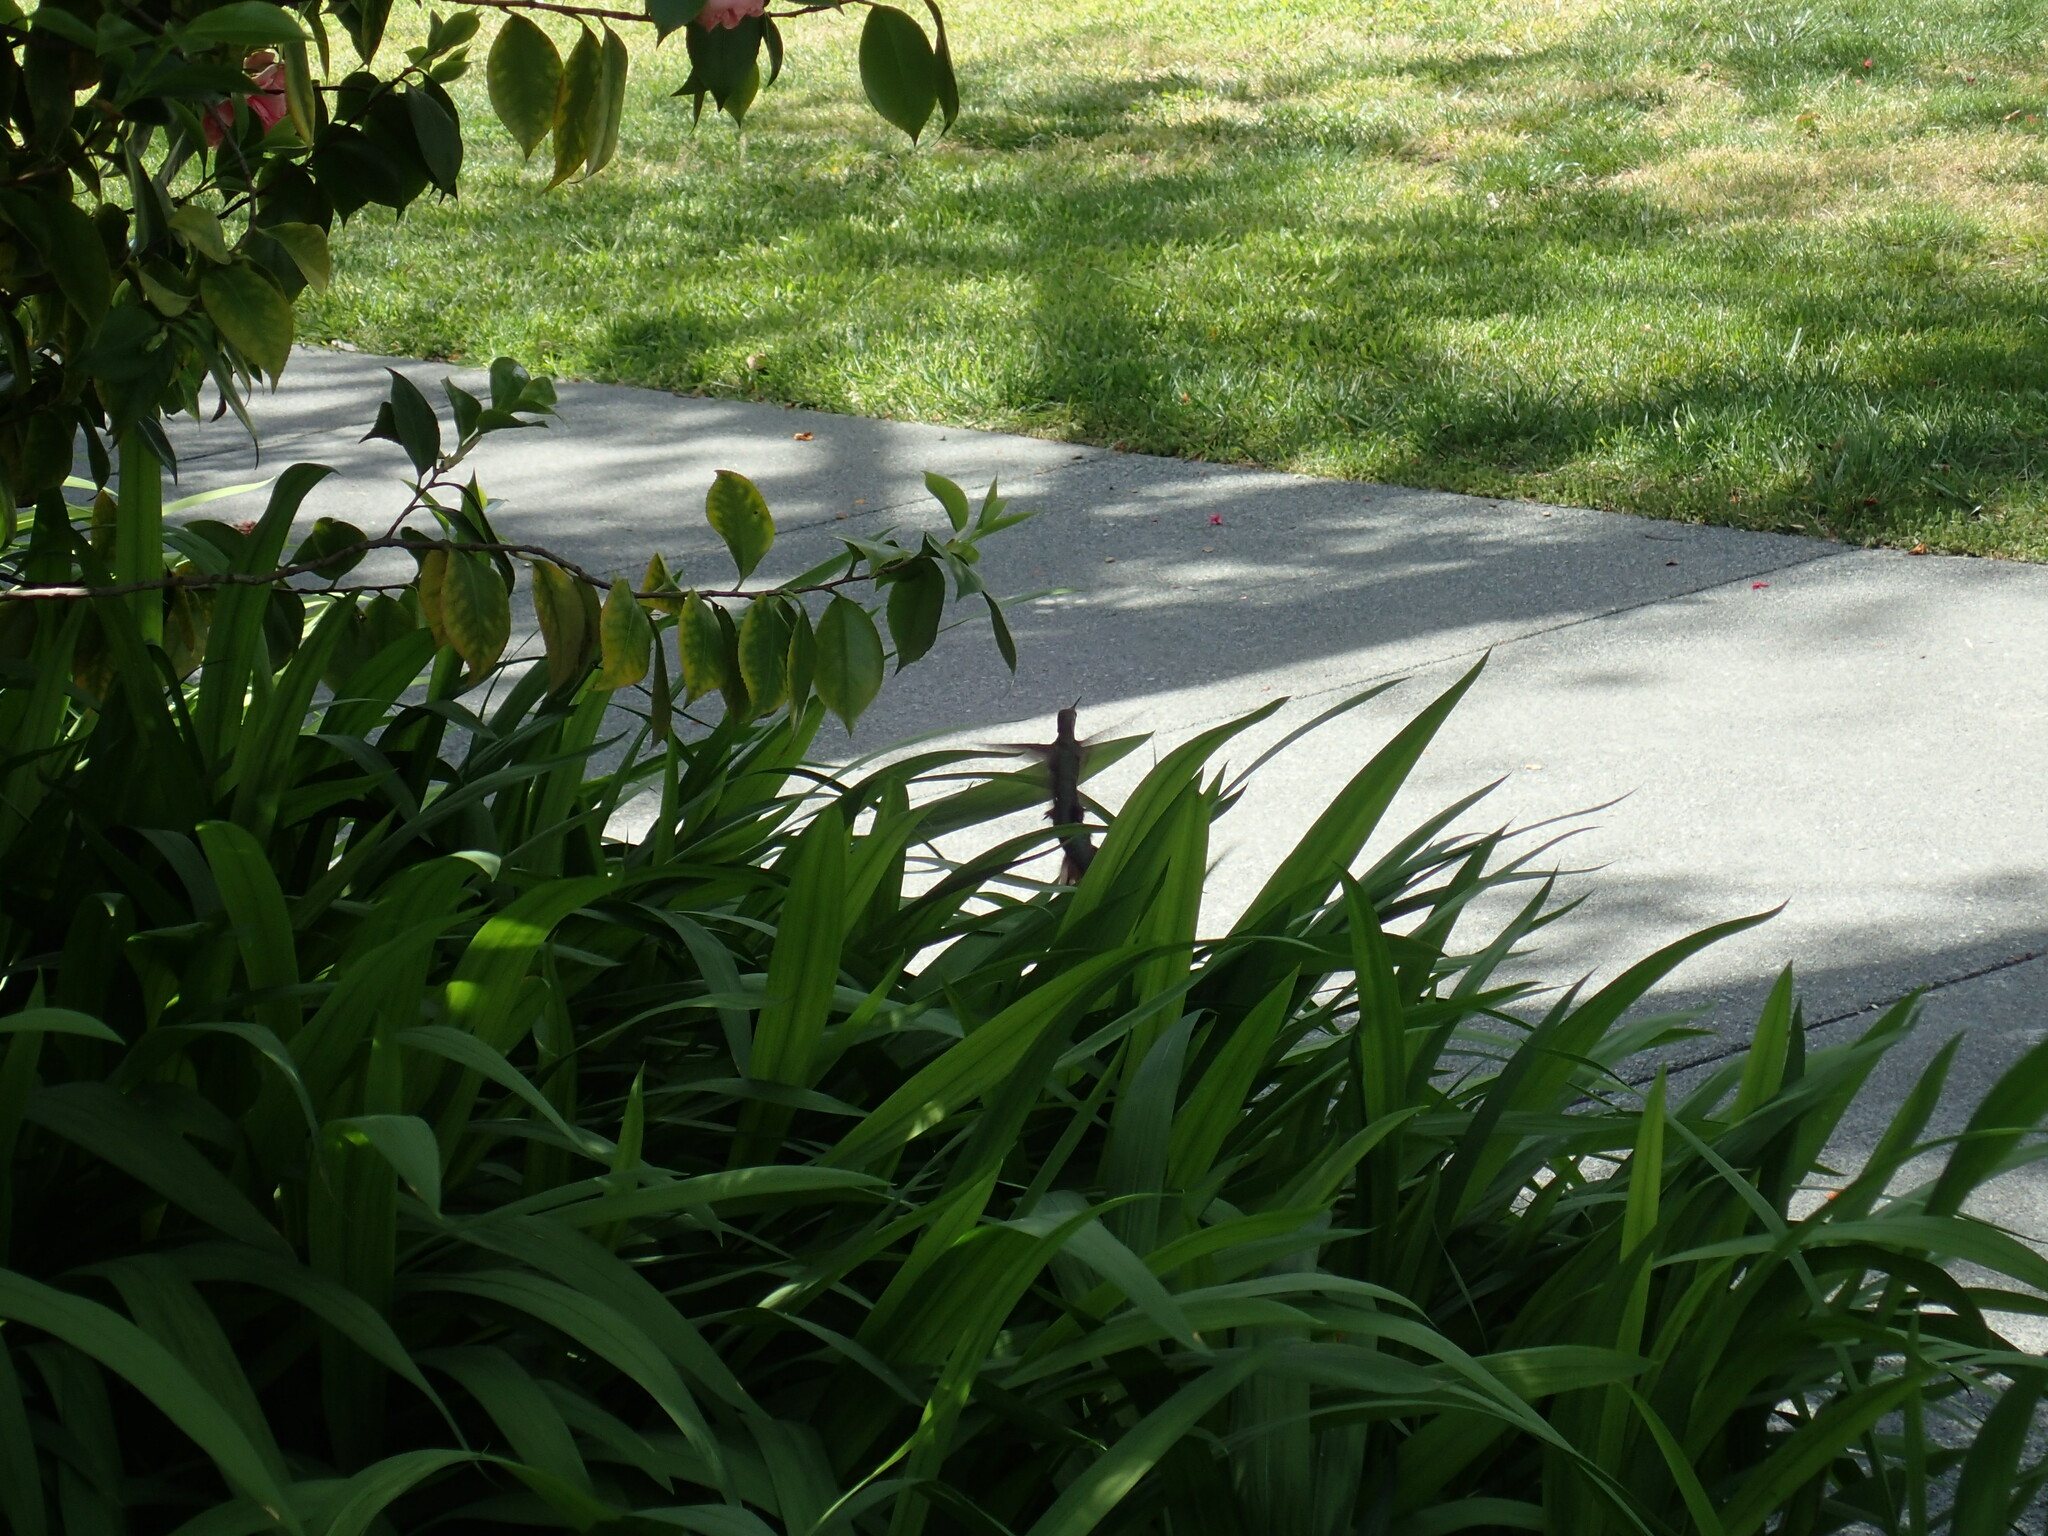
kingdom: Animalia
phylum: Chordata
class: Aves
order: Apodiformes
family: Trochilidae
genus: Calypte
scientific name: Calypte anna
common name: Anna's hummingbird
